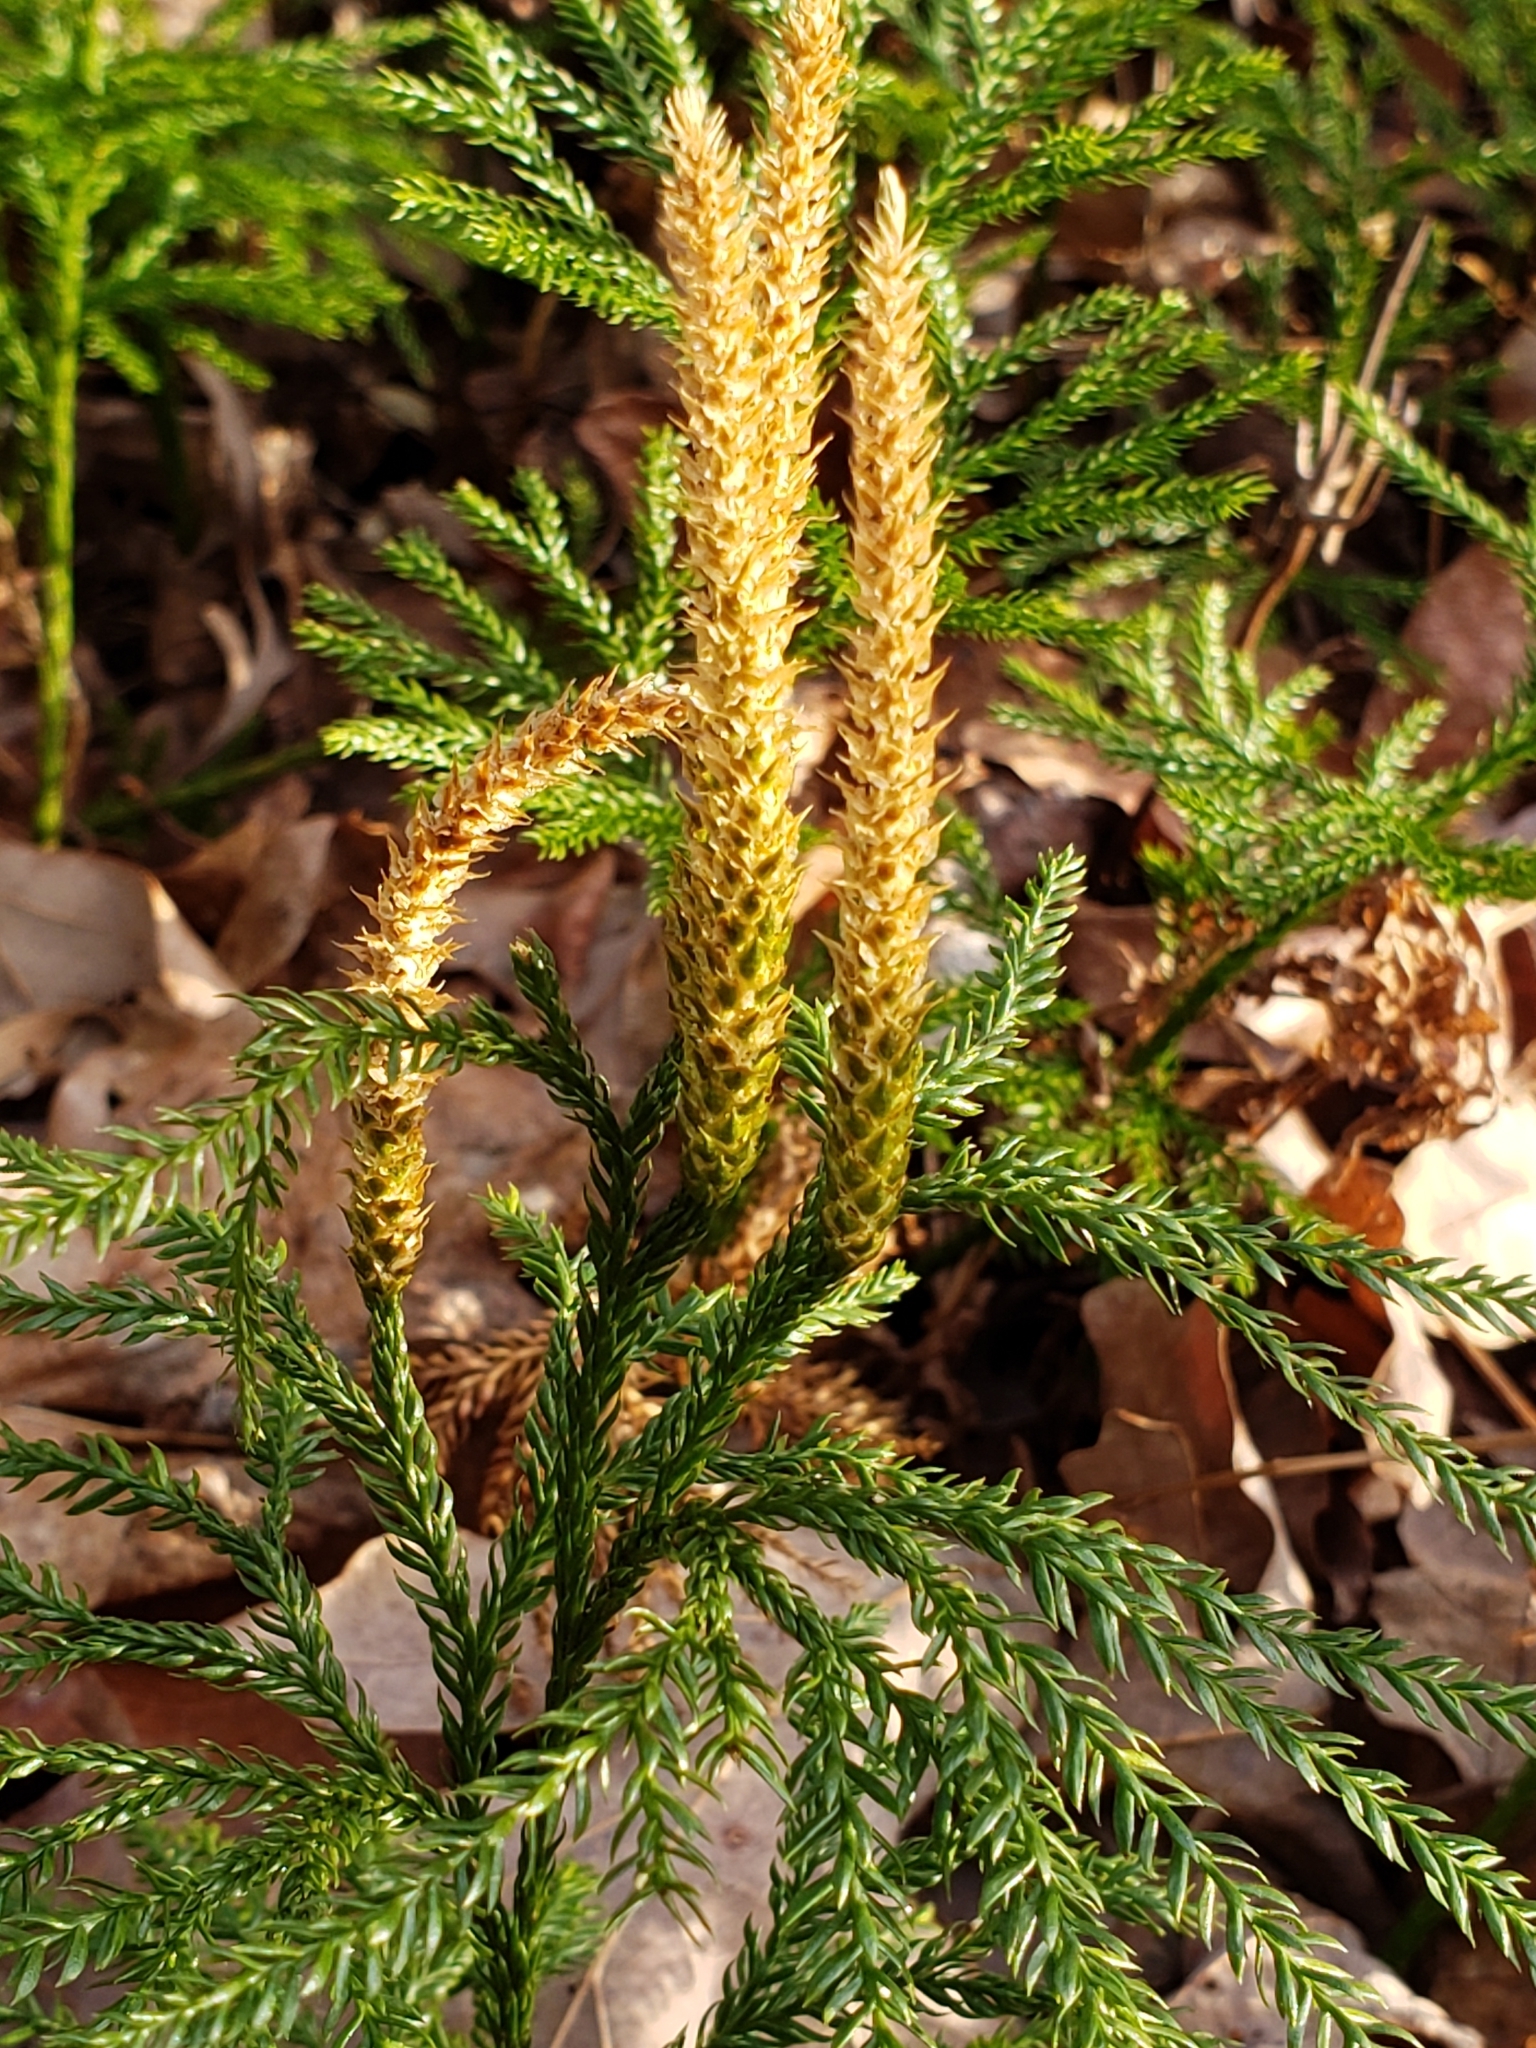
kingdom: Plantae
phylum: Tracheophyta
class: Lycopodiopsida
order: Lycopodiales
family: Lycopodiaceae
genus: Dendrolycopodium
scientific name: Dendrolycopodium obscurum
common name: Common ground-pine
